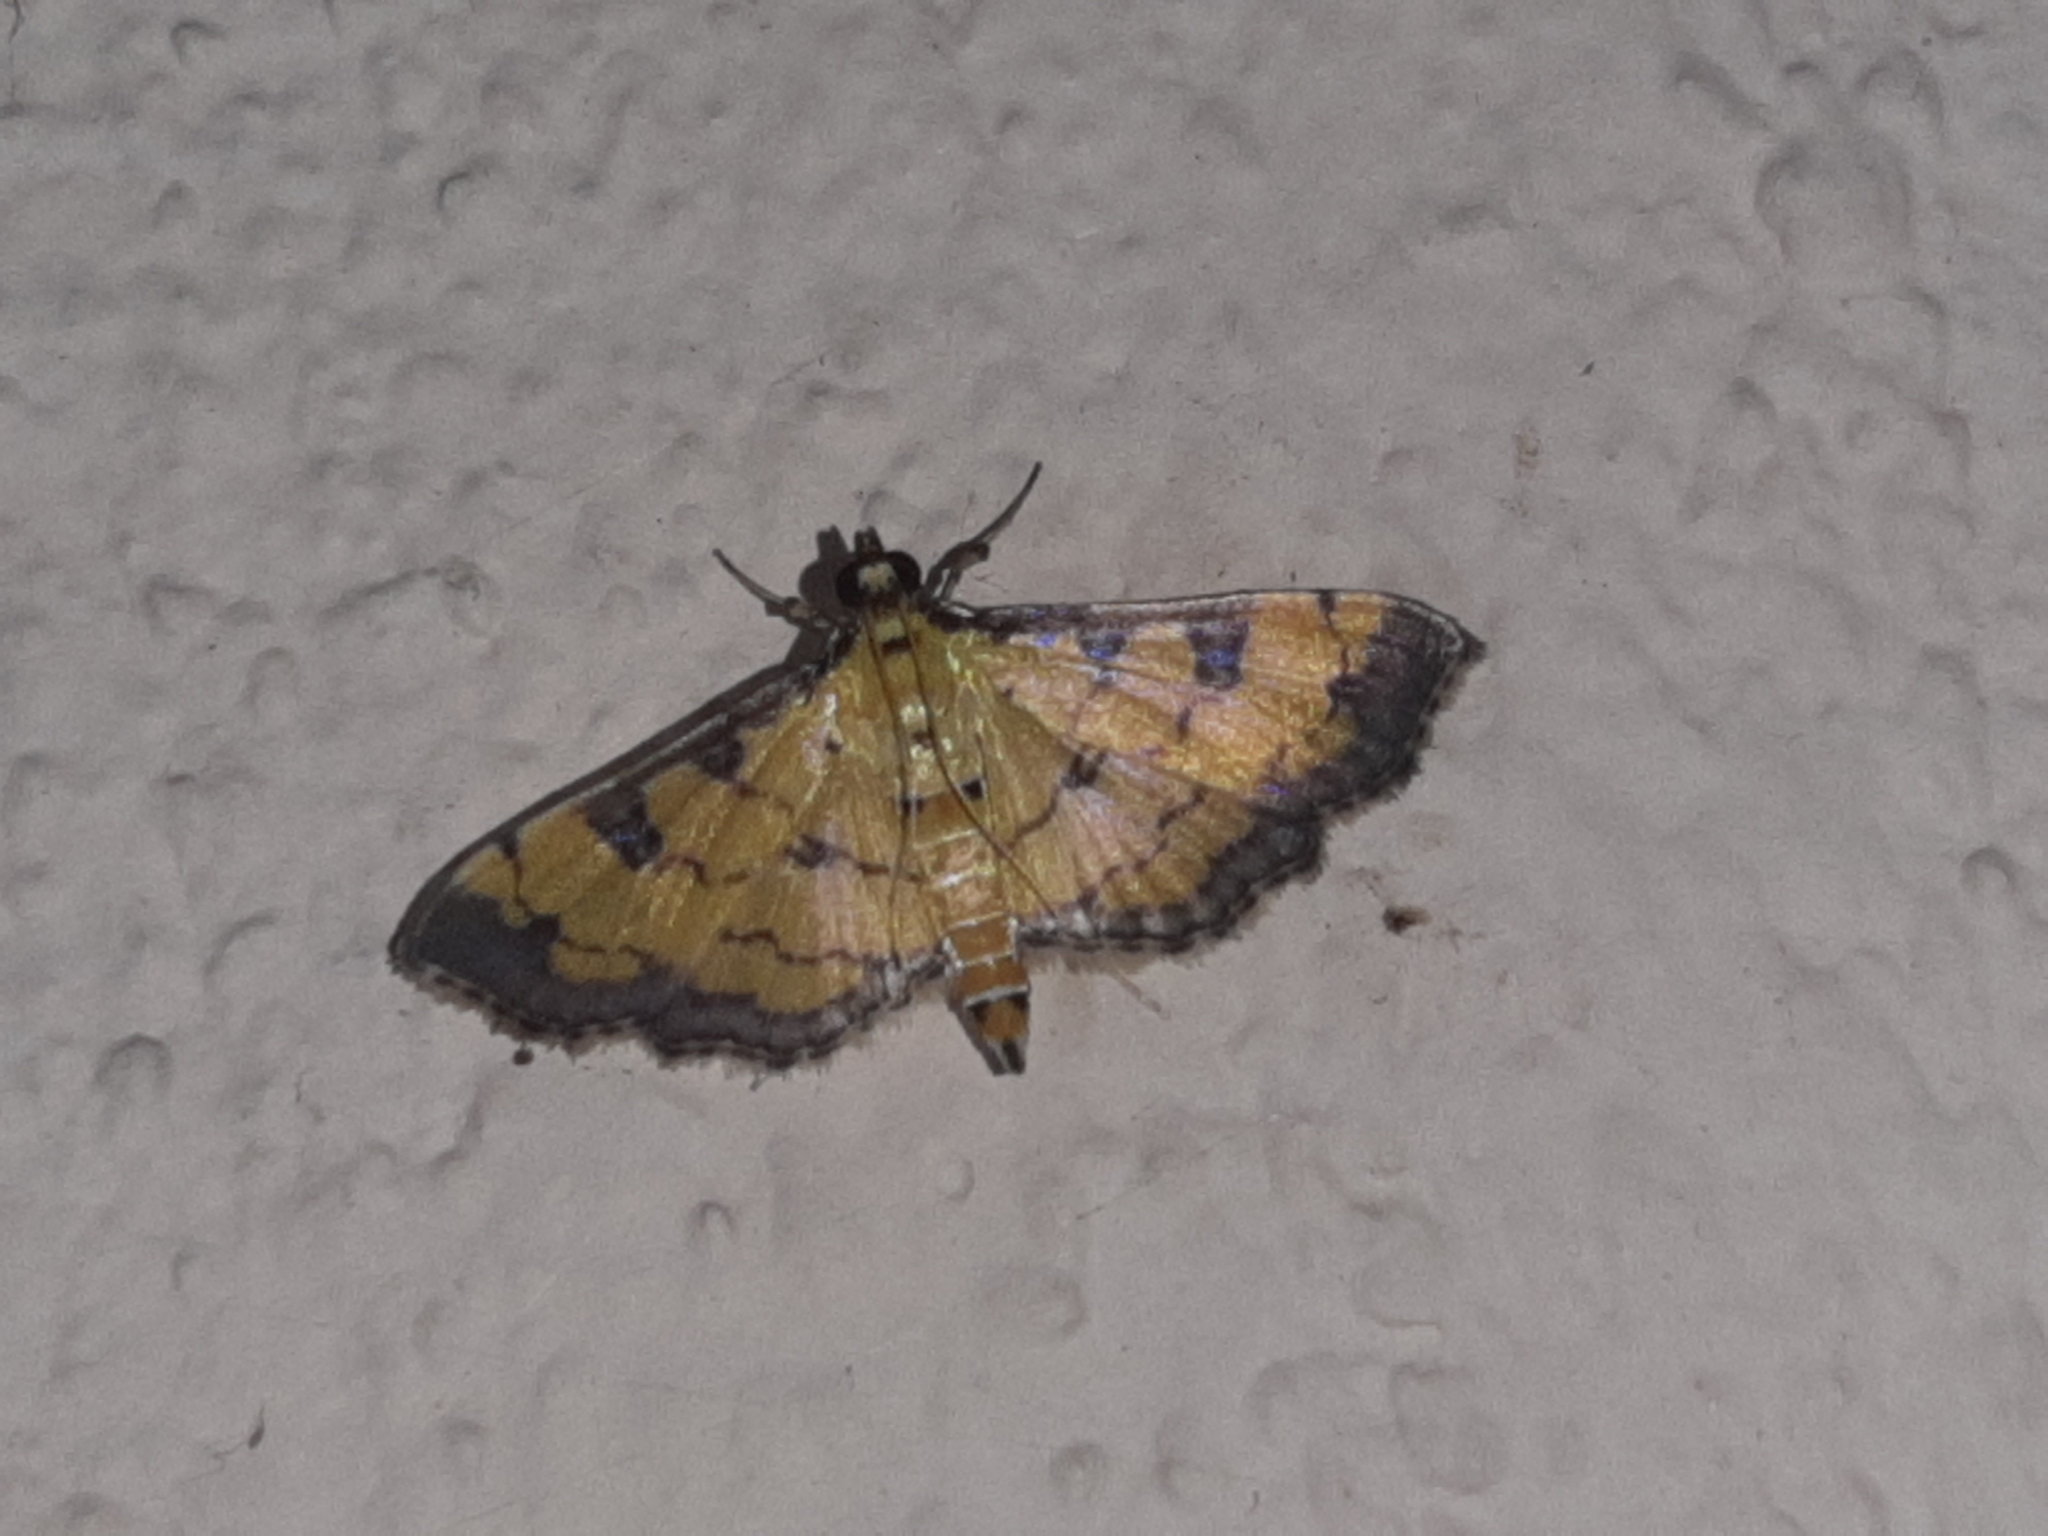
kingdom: Animalia
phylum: Arthropoda
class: Insecta
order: Lepidoptera
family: Crambidae
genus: Ategumia
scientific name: Ategumia ebulealis
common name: Moth
